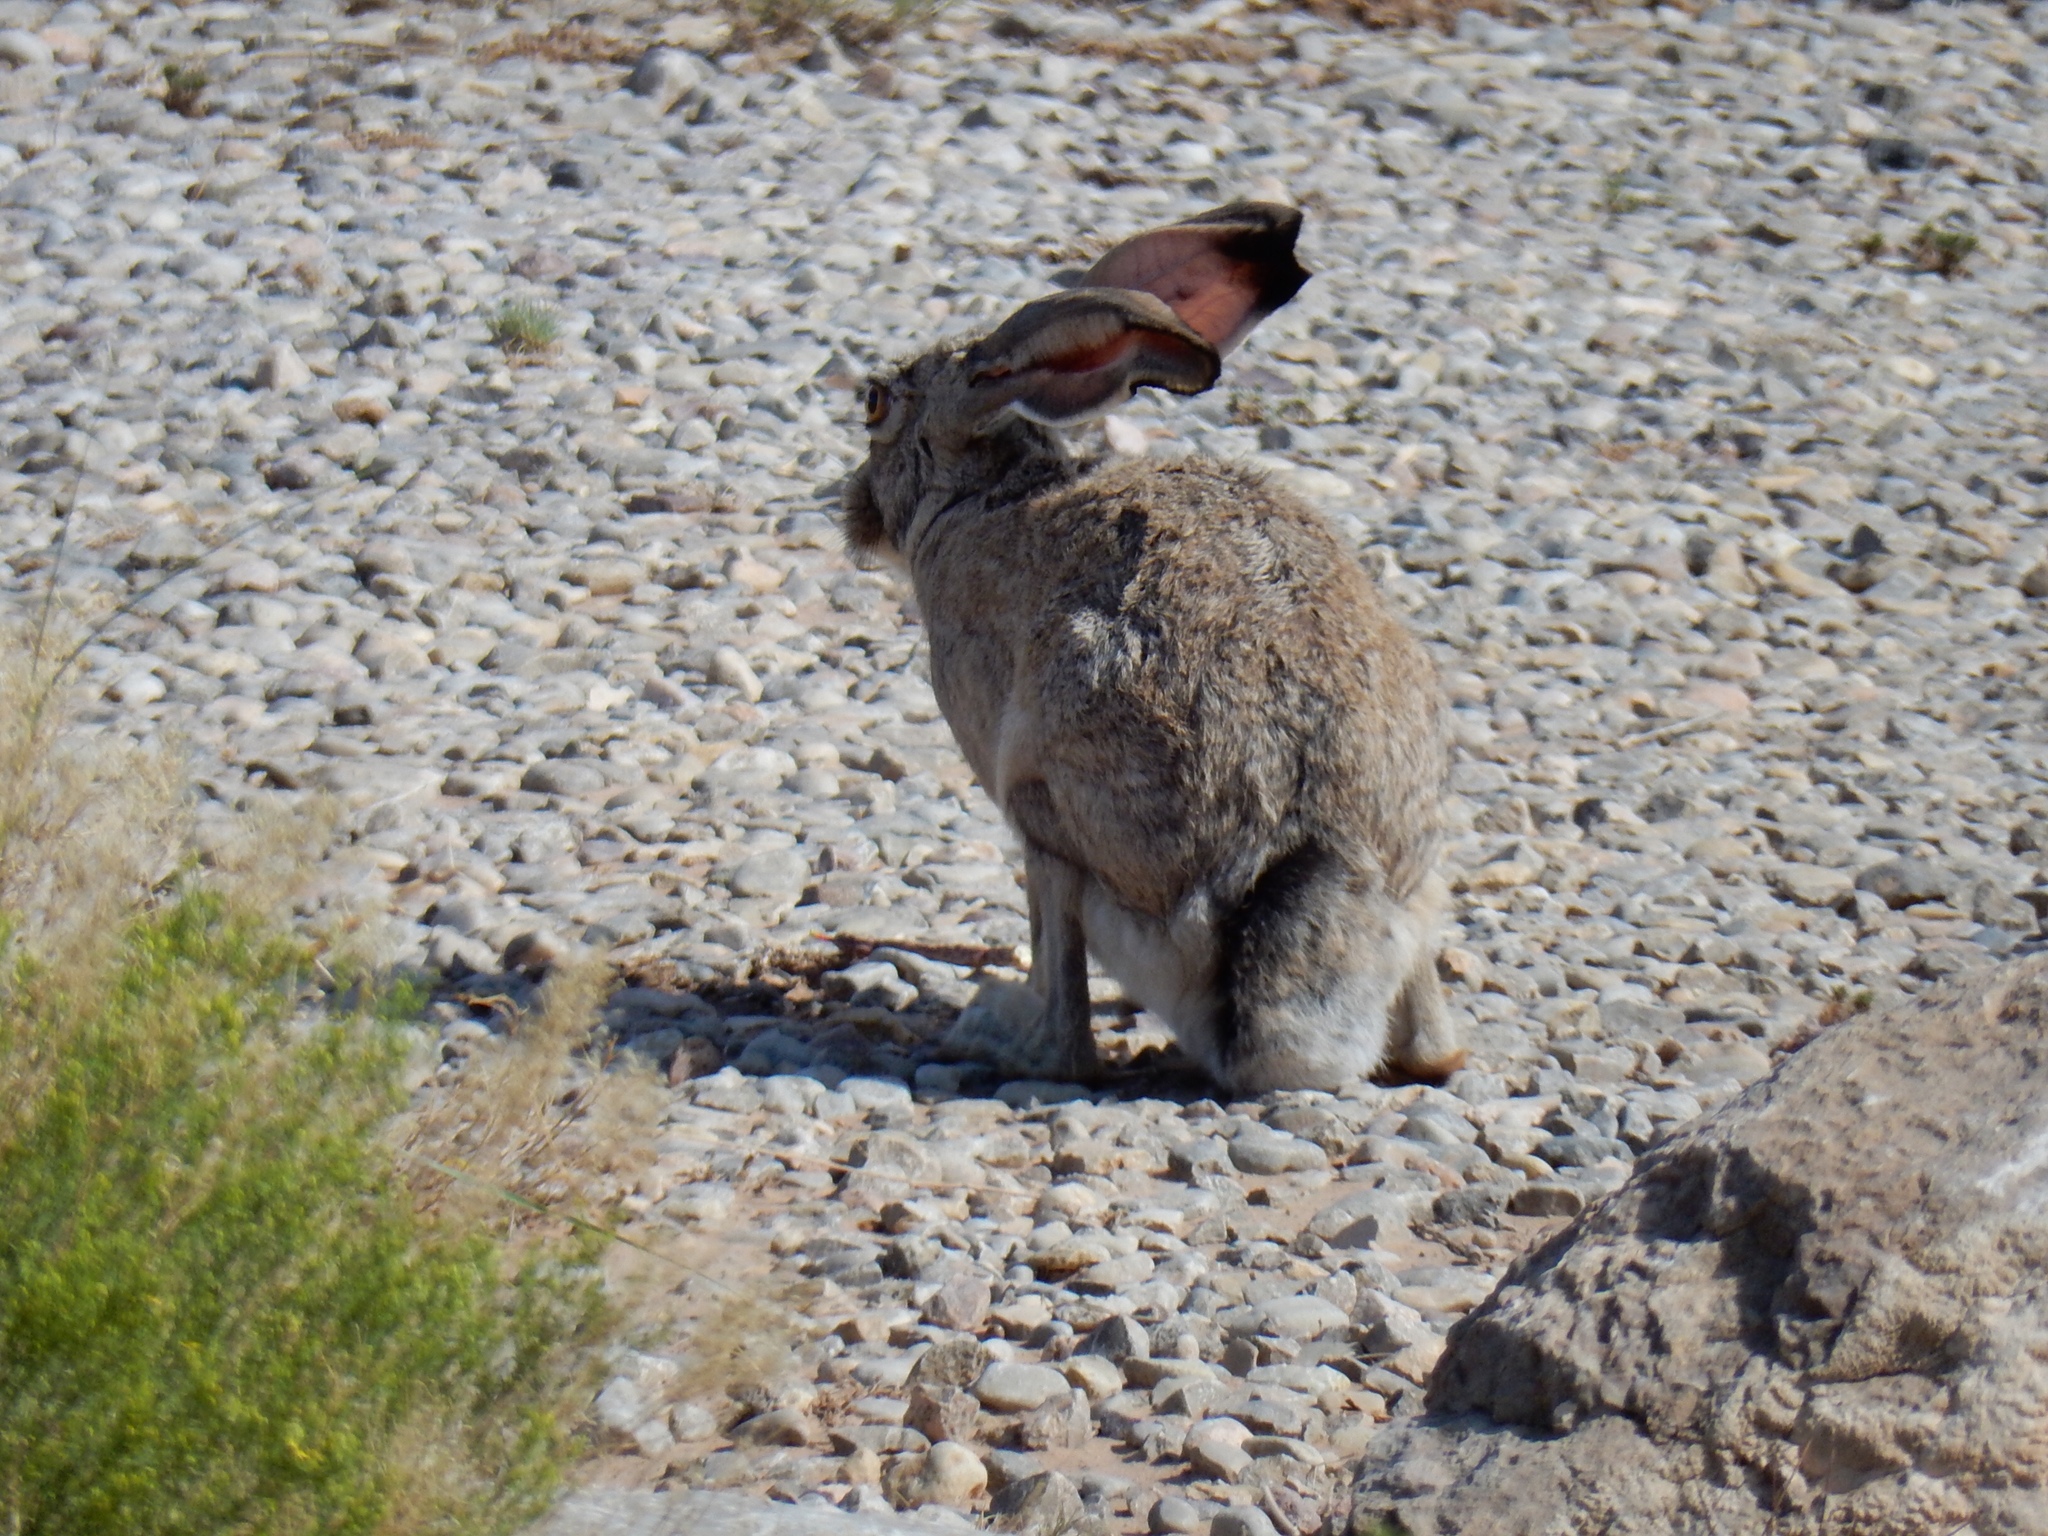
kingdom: Animalia
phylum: Chordata
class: Mammalia
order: Lagomorpha
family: Leporidae
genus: Lepus
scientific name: Lepus californicus
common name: Black-tailed jackrabbit
